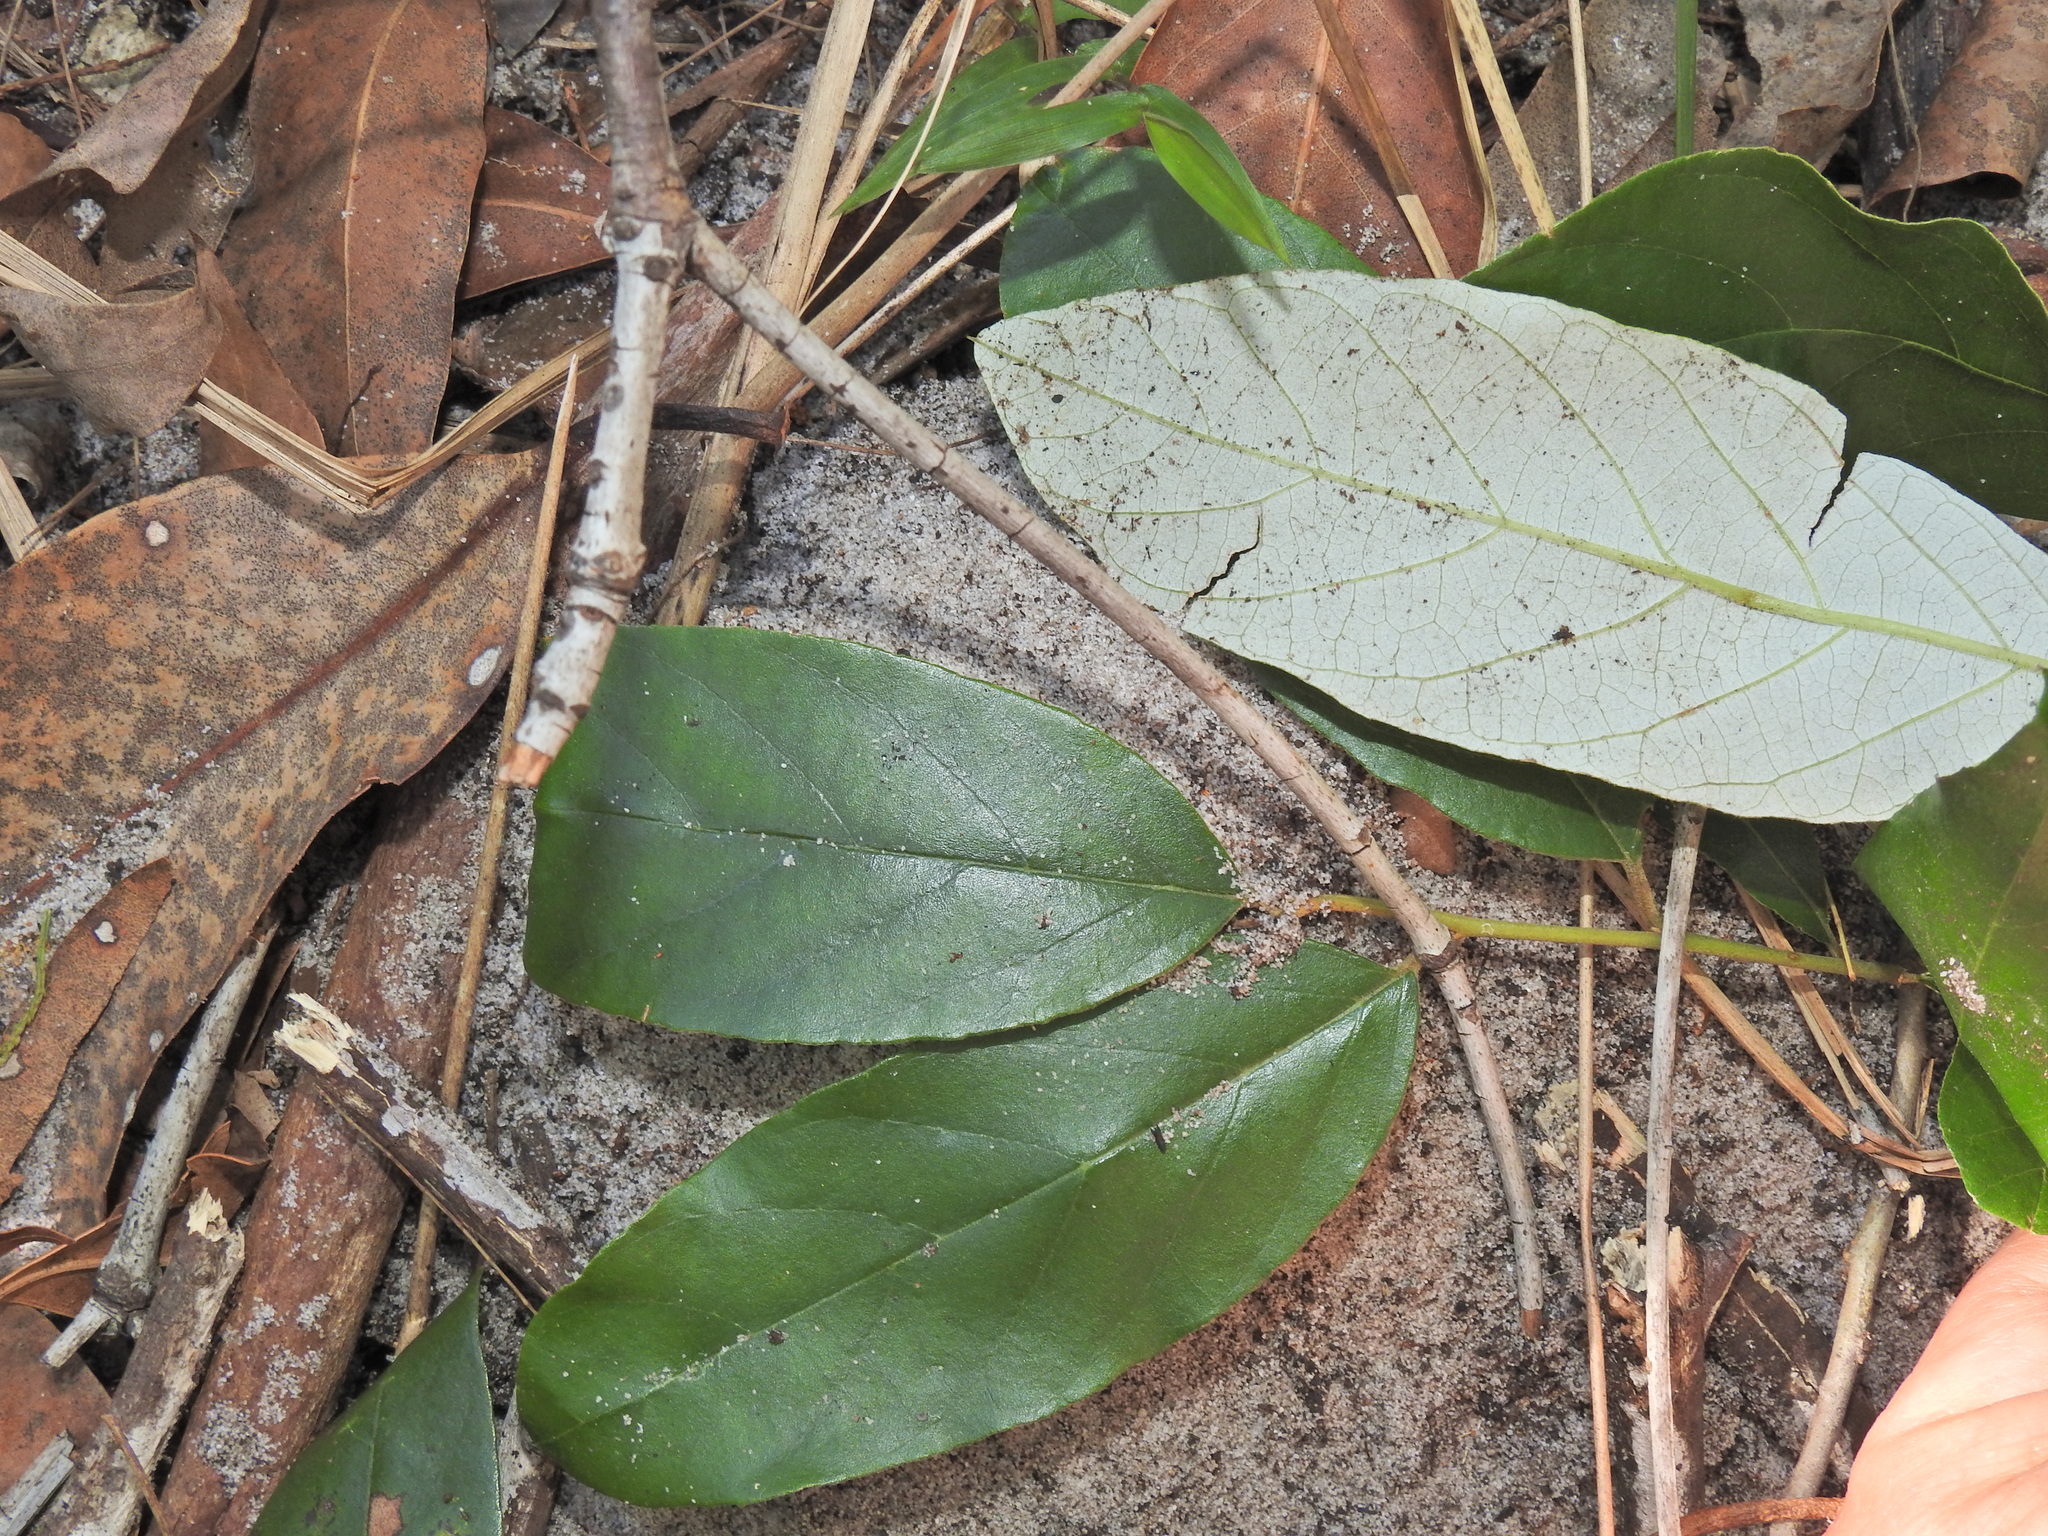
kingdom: Plantae
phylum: Tracheophyta
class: Magnoliopsida
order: Rosales
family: Rhamnaceae
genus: Alphitonia
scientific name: Alphitonia excelsa
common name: Red ash
